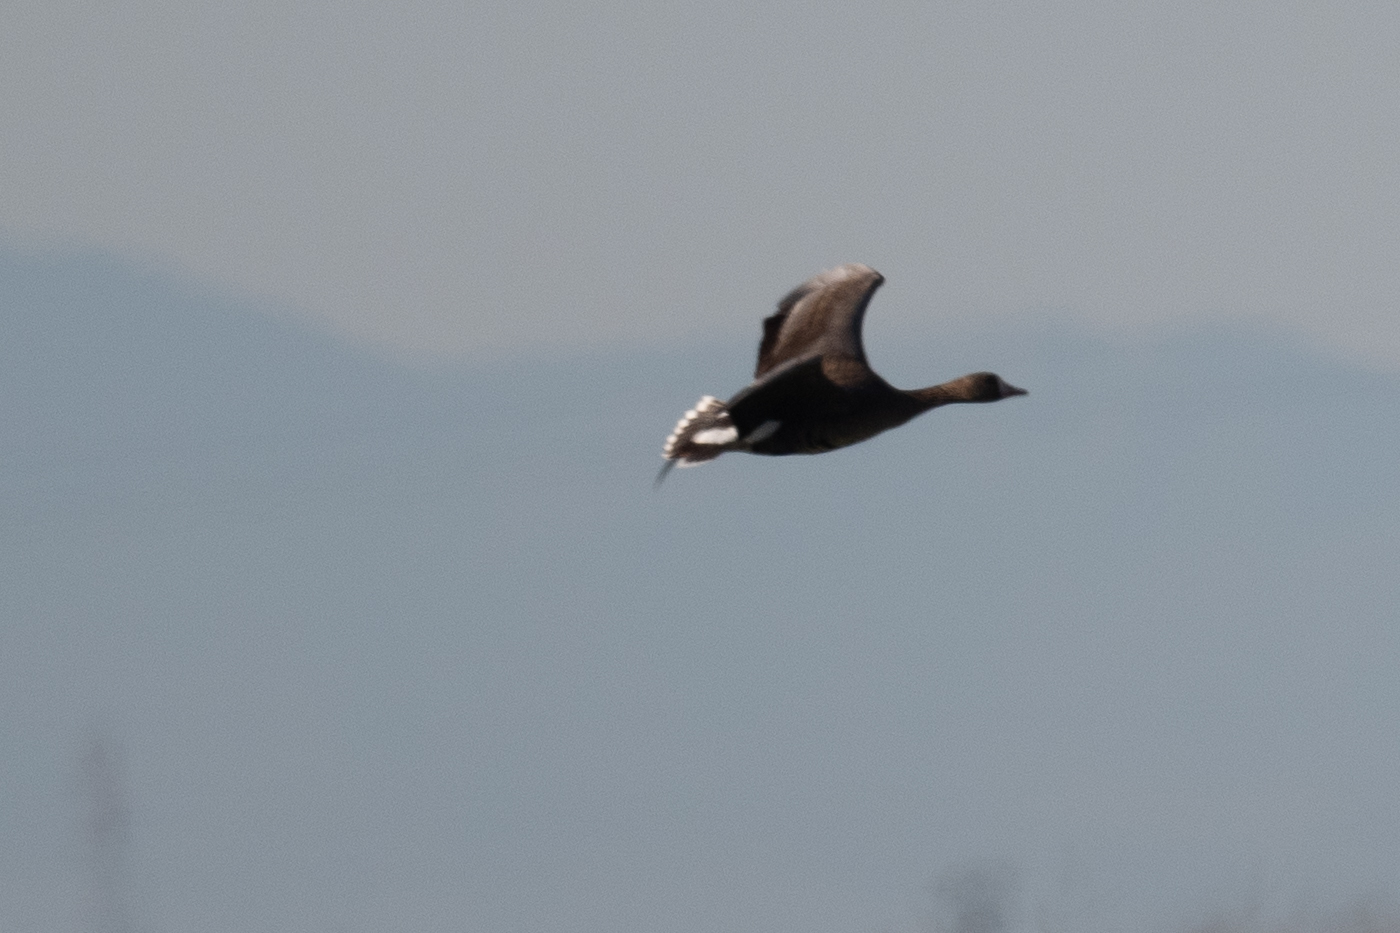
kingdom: Animalia
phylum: Chordata
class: Aves
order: Anseriformes
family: Anatidae
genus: Anser
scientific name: Anser albifrons
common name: Greater white-fronted goose
